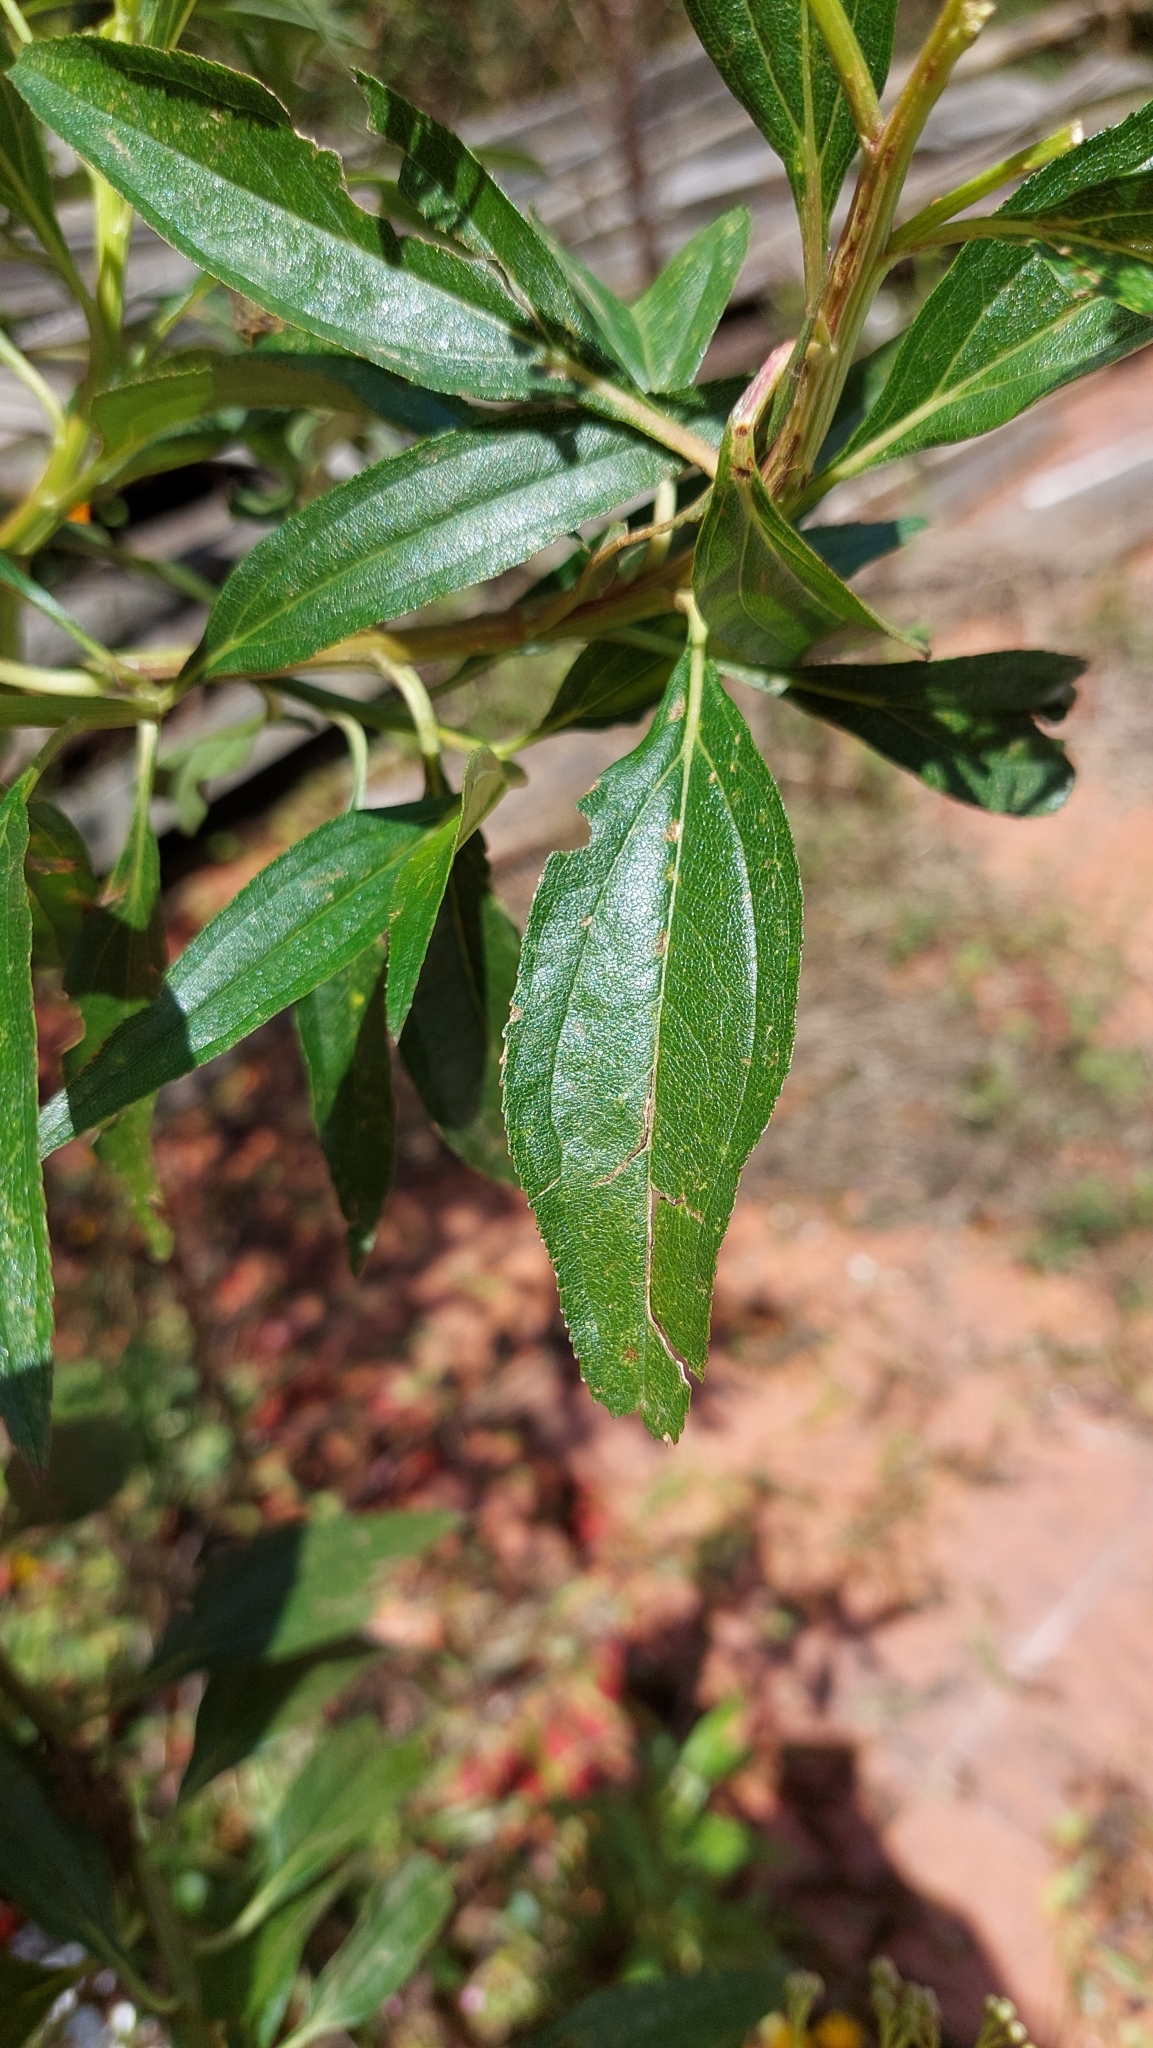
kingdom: Plantae
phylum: Tracheophyta
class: Magnoliopsida
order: Asterales
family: Asteraceae
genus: Baccharis
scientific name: Baccharis latifolia
